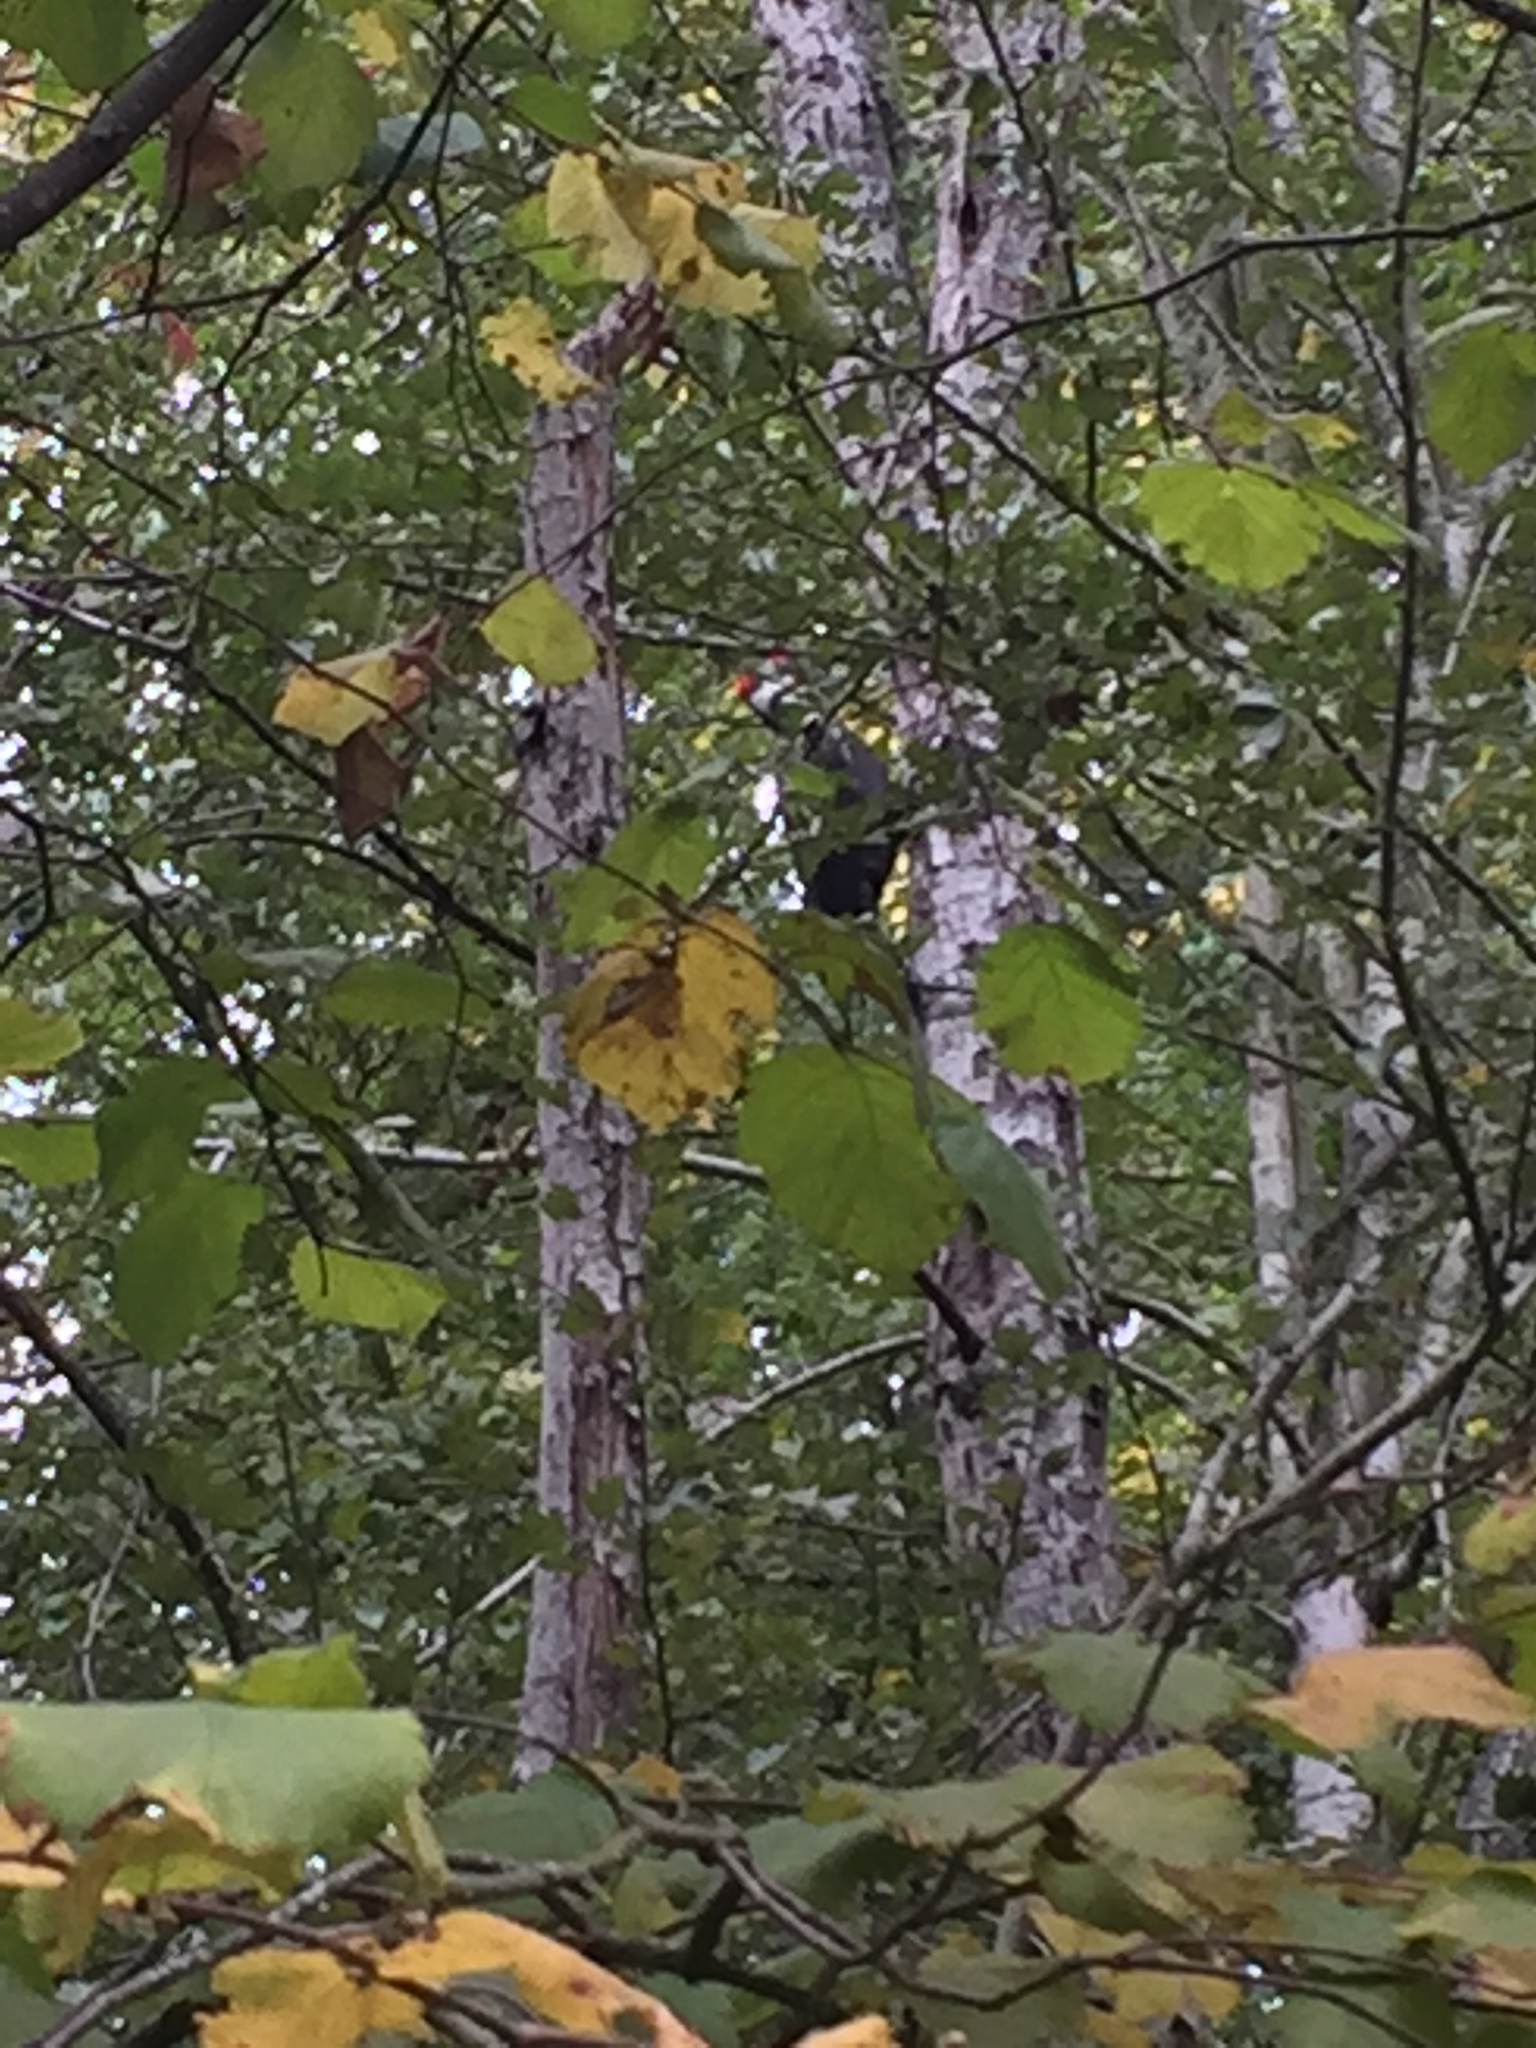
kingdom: Animalia
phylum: Chordata
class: Aves
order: Piciformes
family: Picidae
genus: Dryocopus
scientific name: Dryocopus pileatus
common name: Pileated woodpecker
